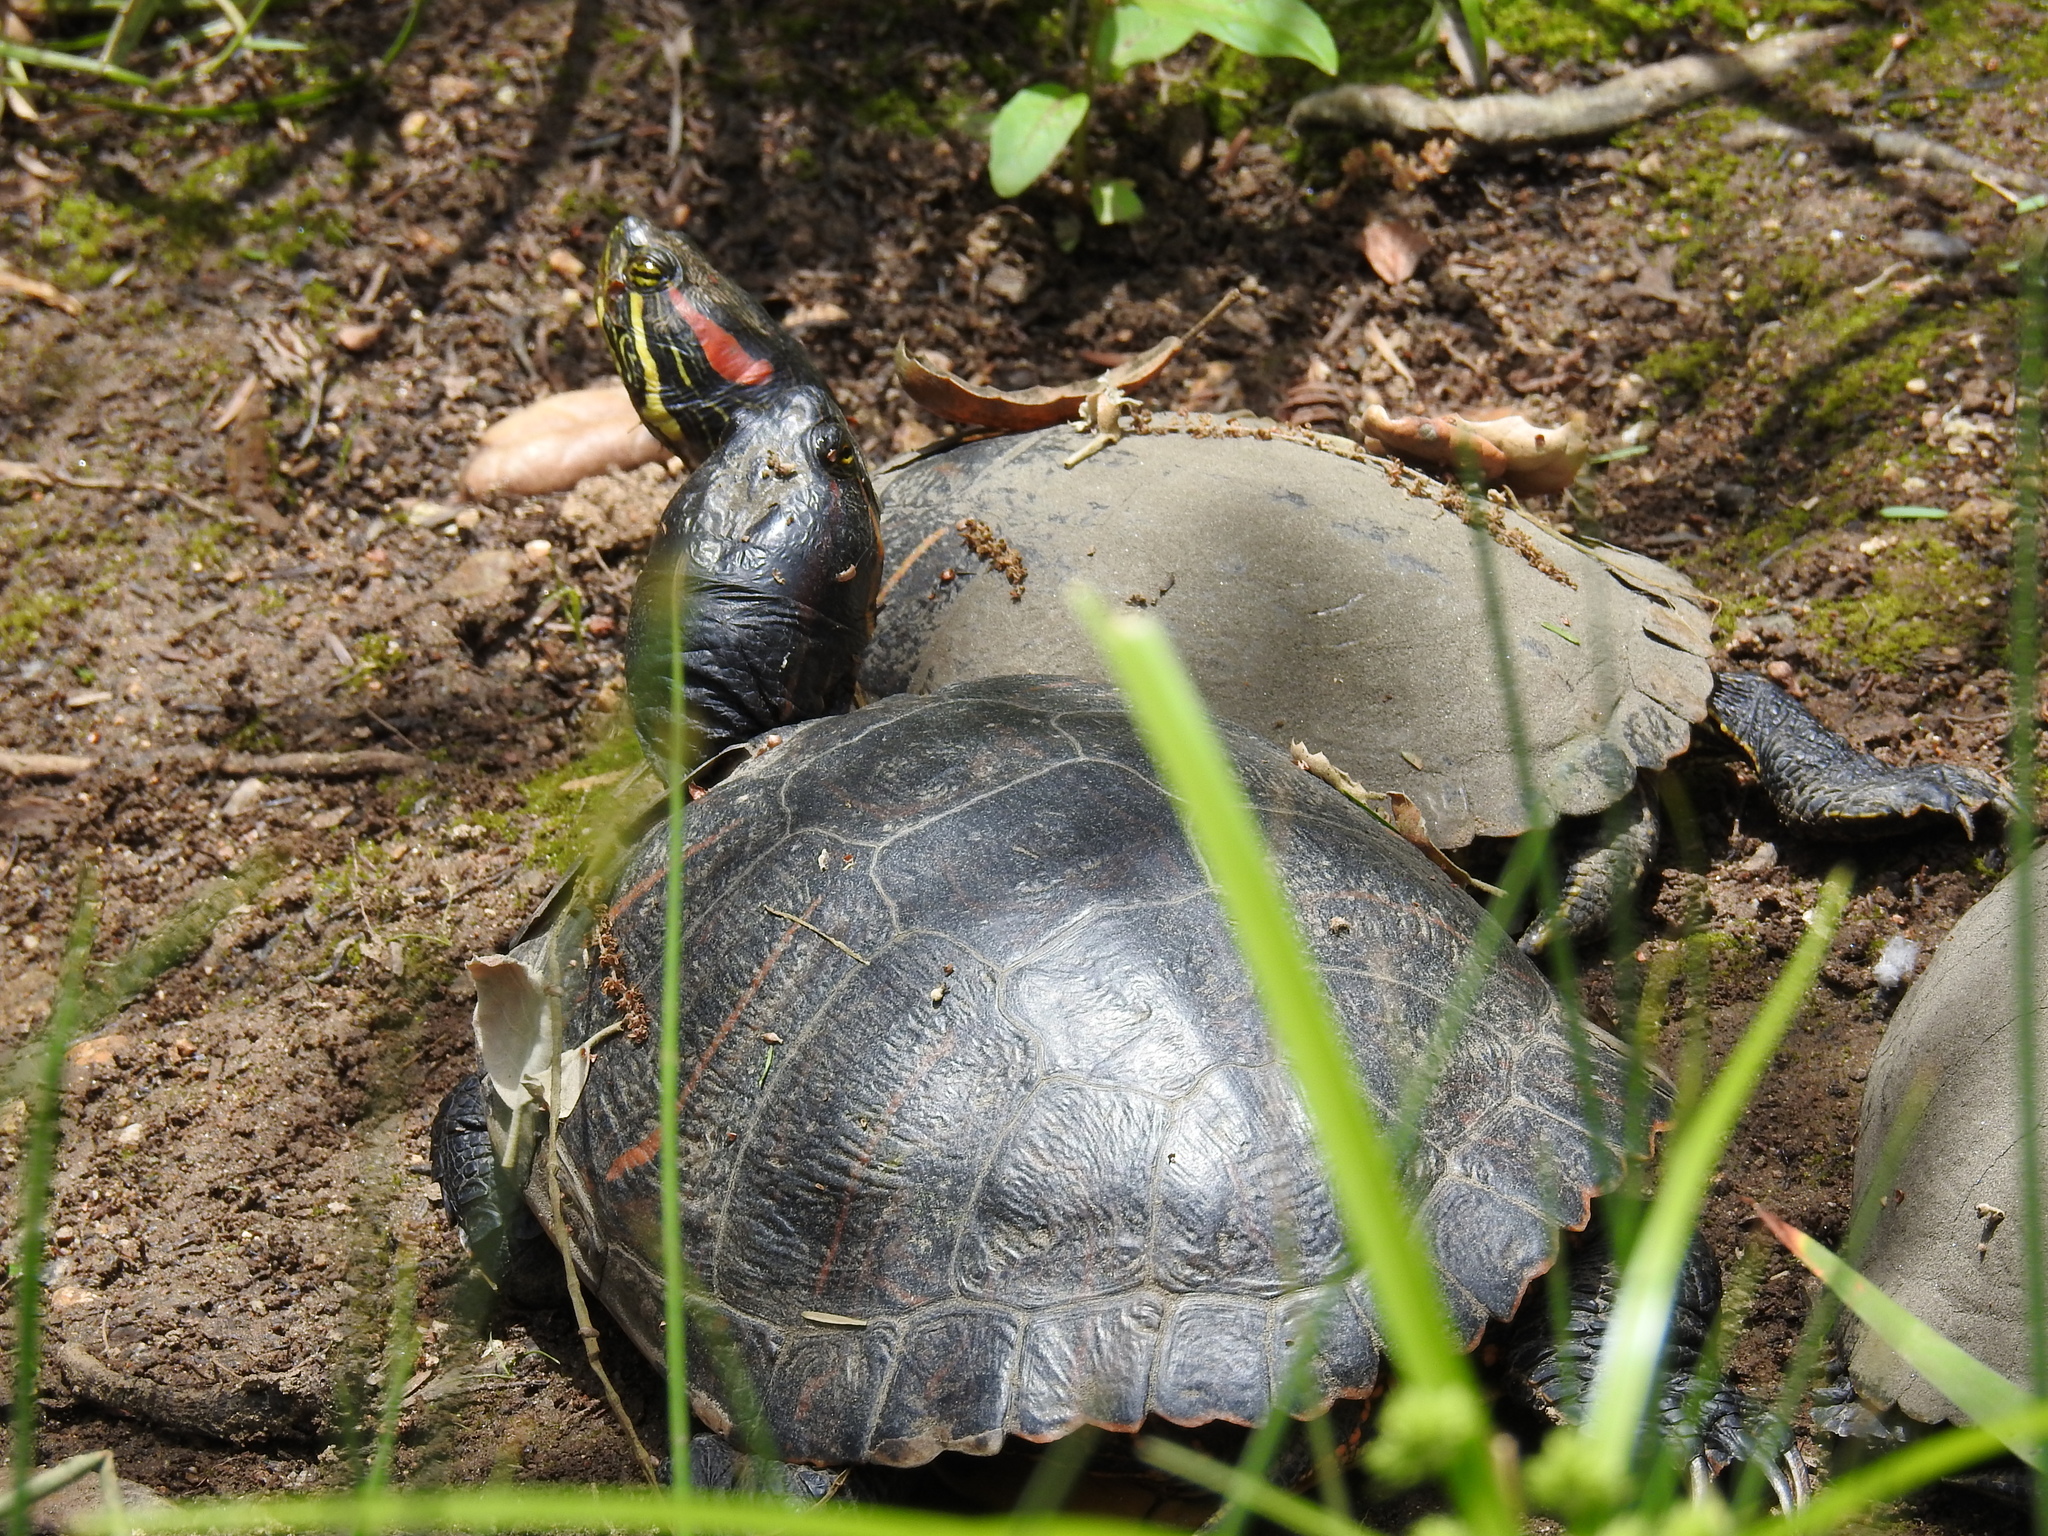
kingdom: Animalia
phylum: Chordata
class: Testudines
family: Emydidae
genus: Trachemys
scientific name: Trachemys scripta
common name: Slider
